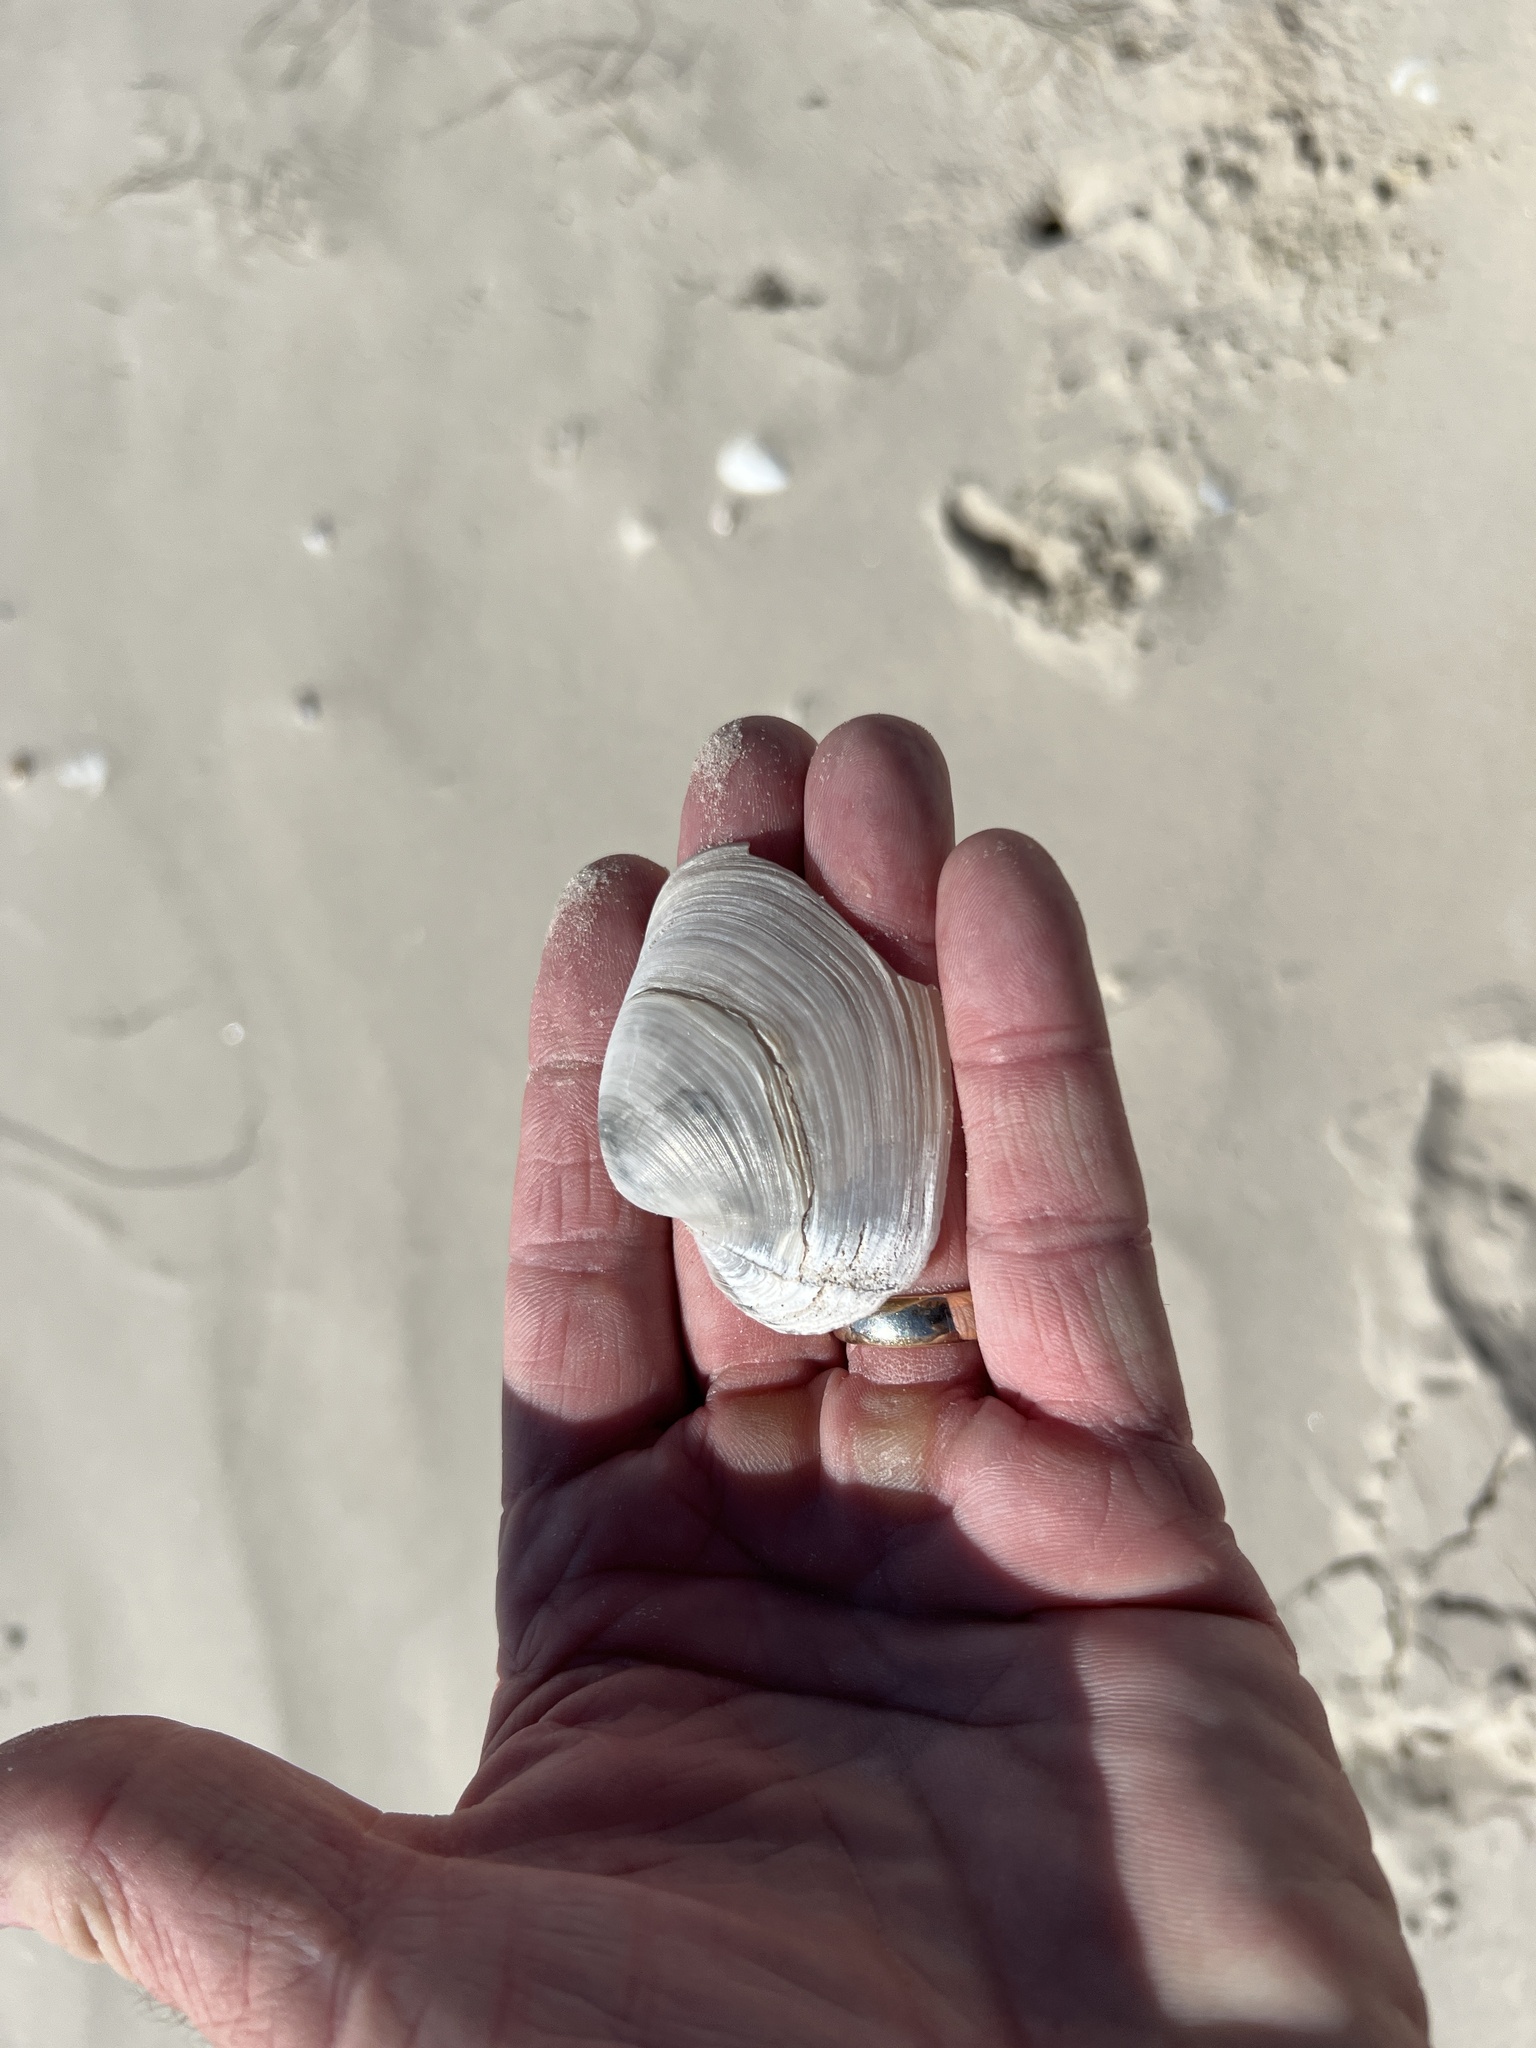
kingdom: Animalia
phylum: Mollusca
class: Bivalvia
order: Venerida
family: Anatinellidae
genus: Anatina
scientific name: Anatina anatina
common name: Smooth duckclam
